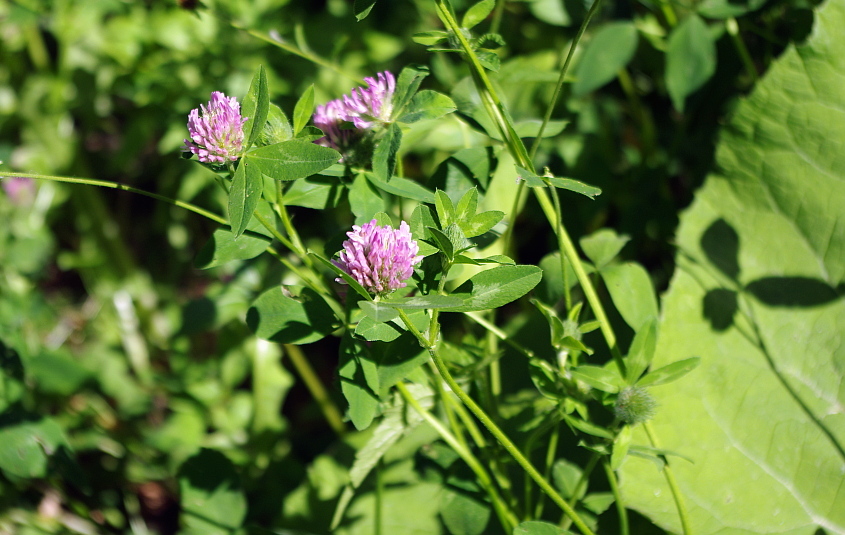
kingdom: Plantae
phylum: Tracheophyta
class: Magnoliopsida
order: Fabales
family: Fabaceae
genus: Trifolium
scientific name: Trifolium pratense
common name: Red clover
